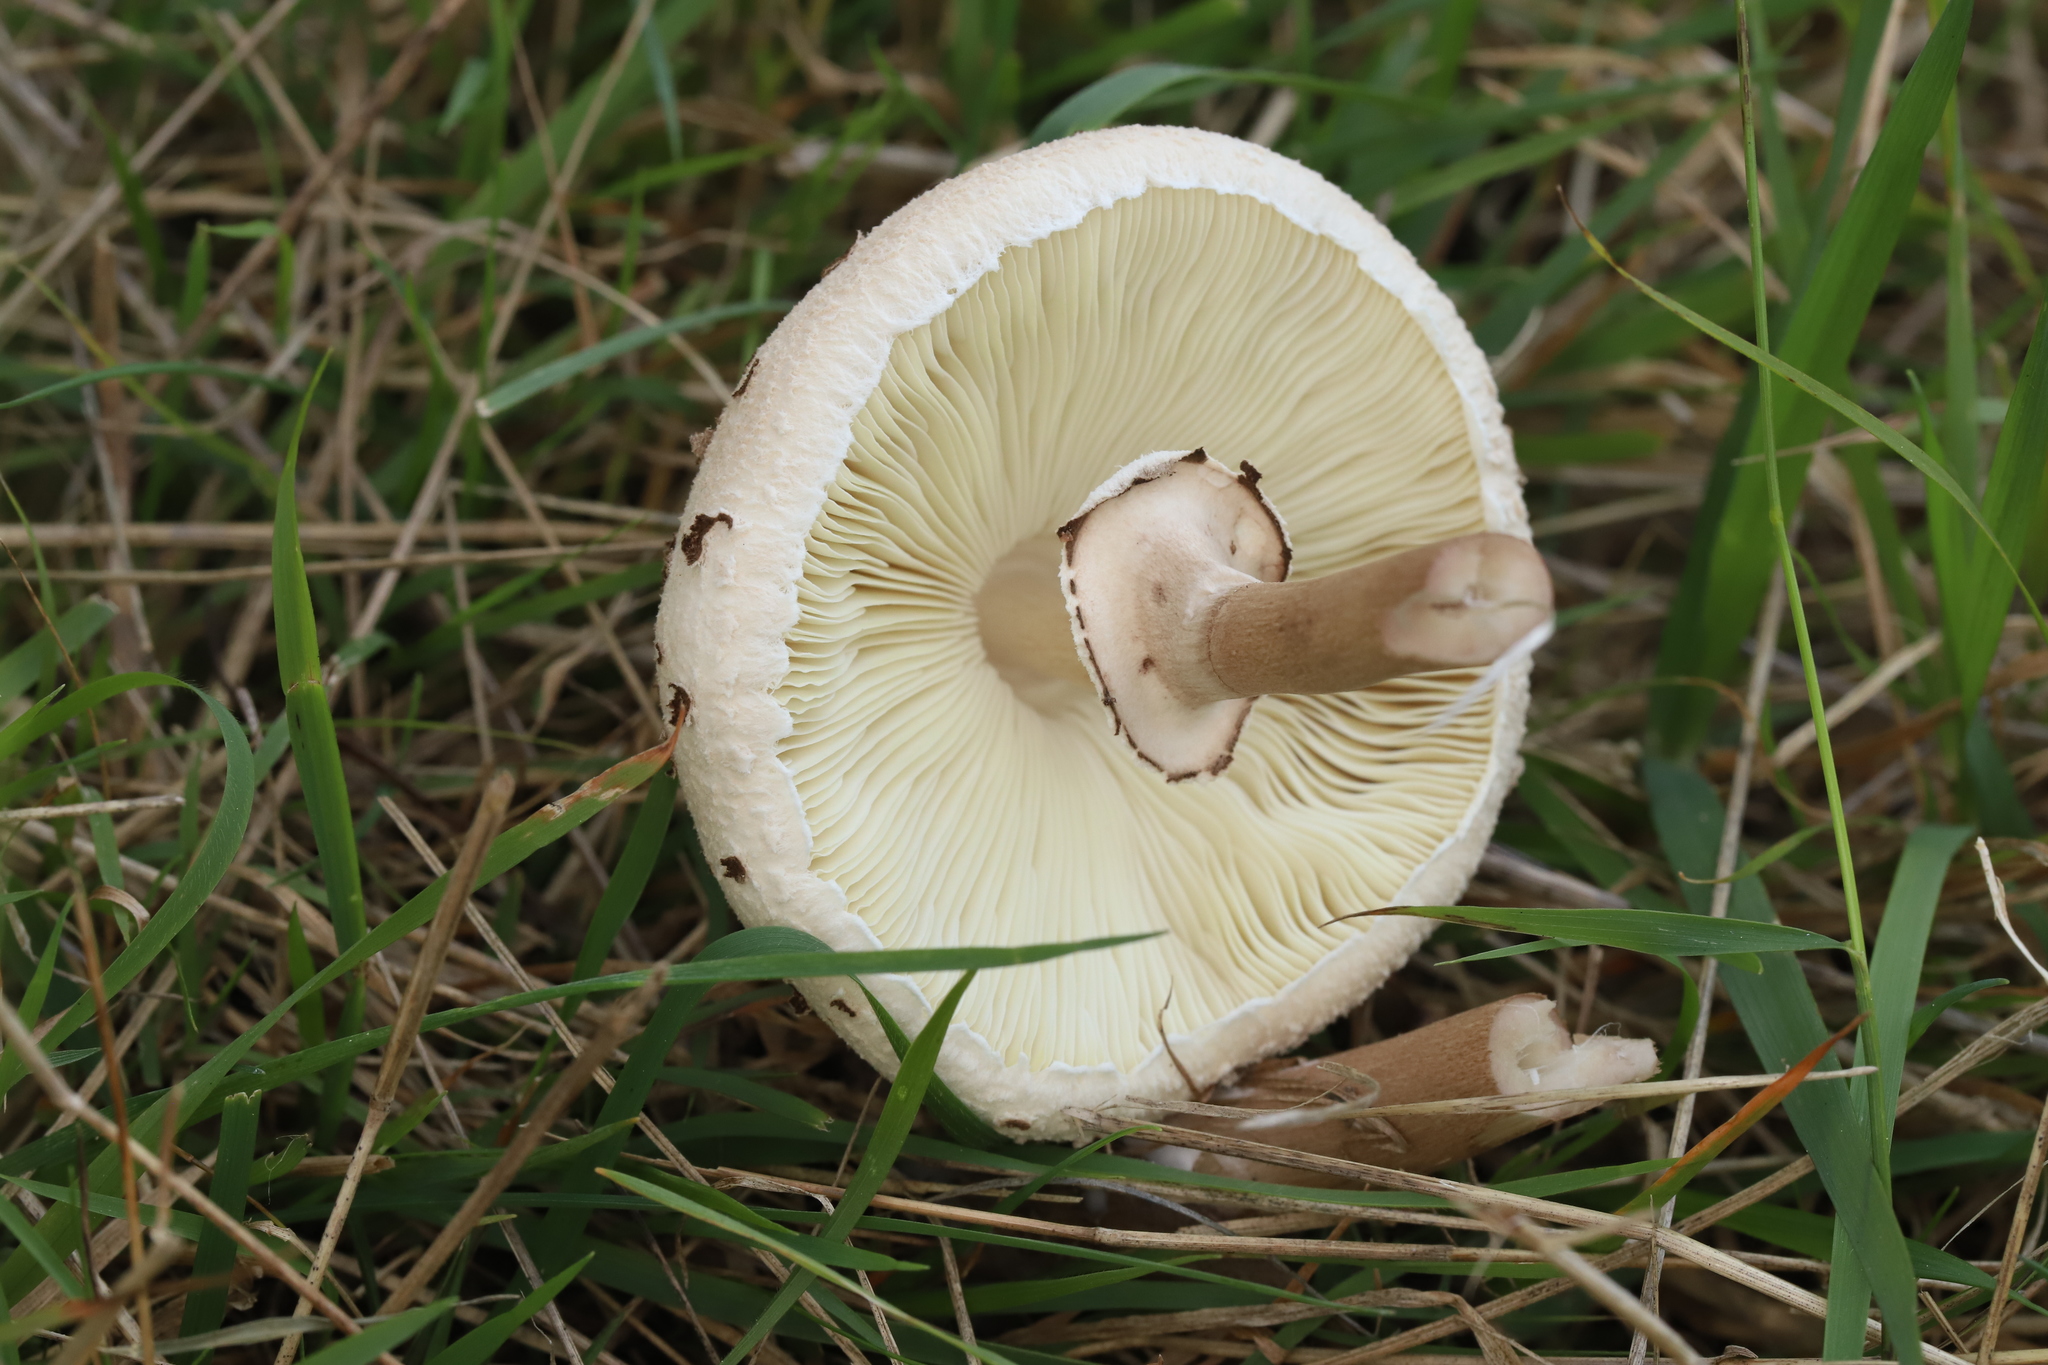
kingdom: Fungi
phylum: Basidiomycota
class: Agaricomycetes
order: Agaricales
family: Agaricaceae
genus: Macrolepiota
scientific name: Macrolepiota clelandii
